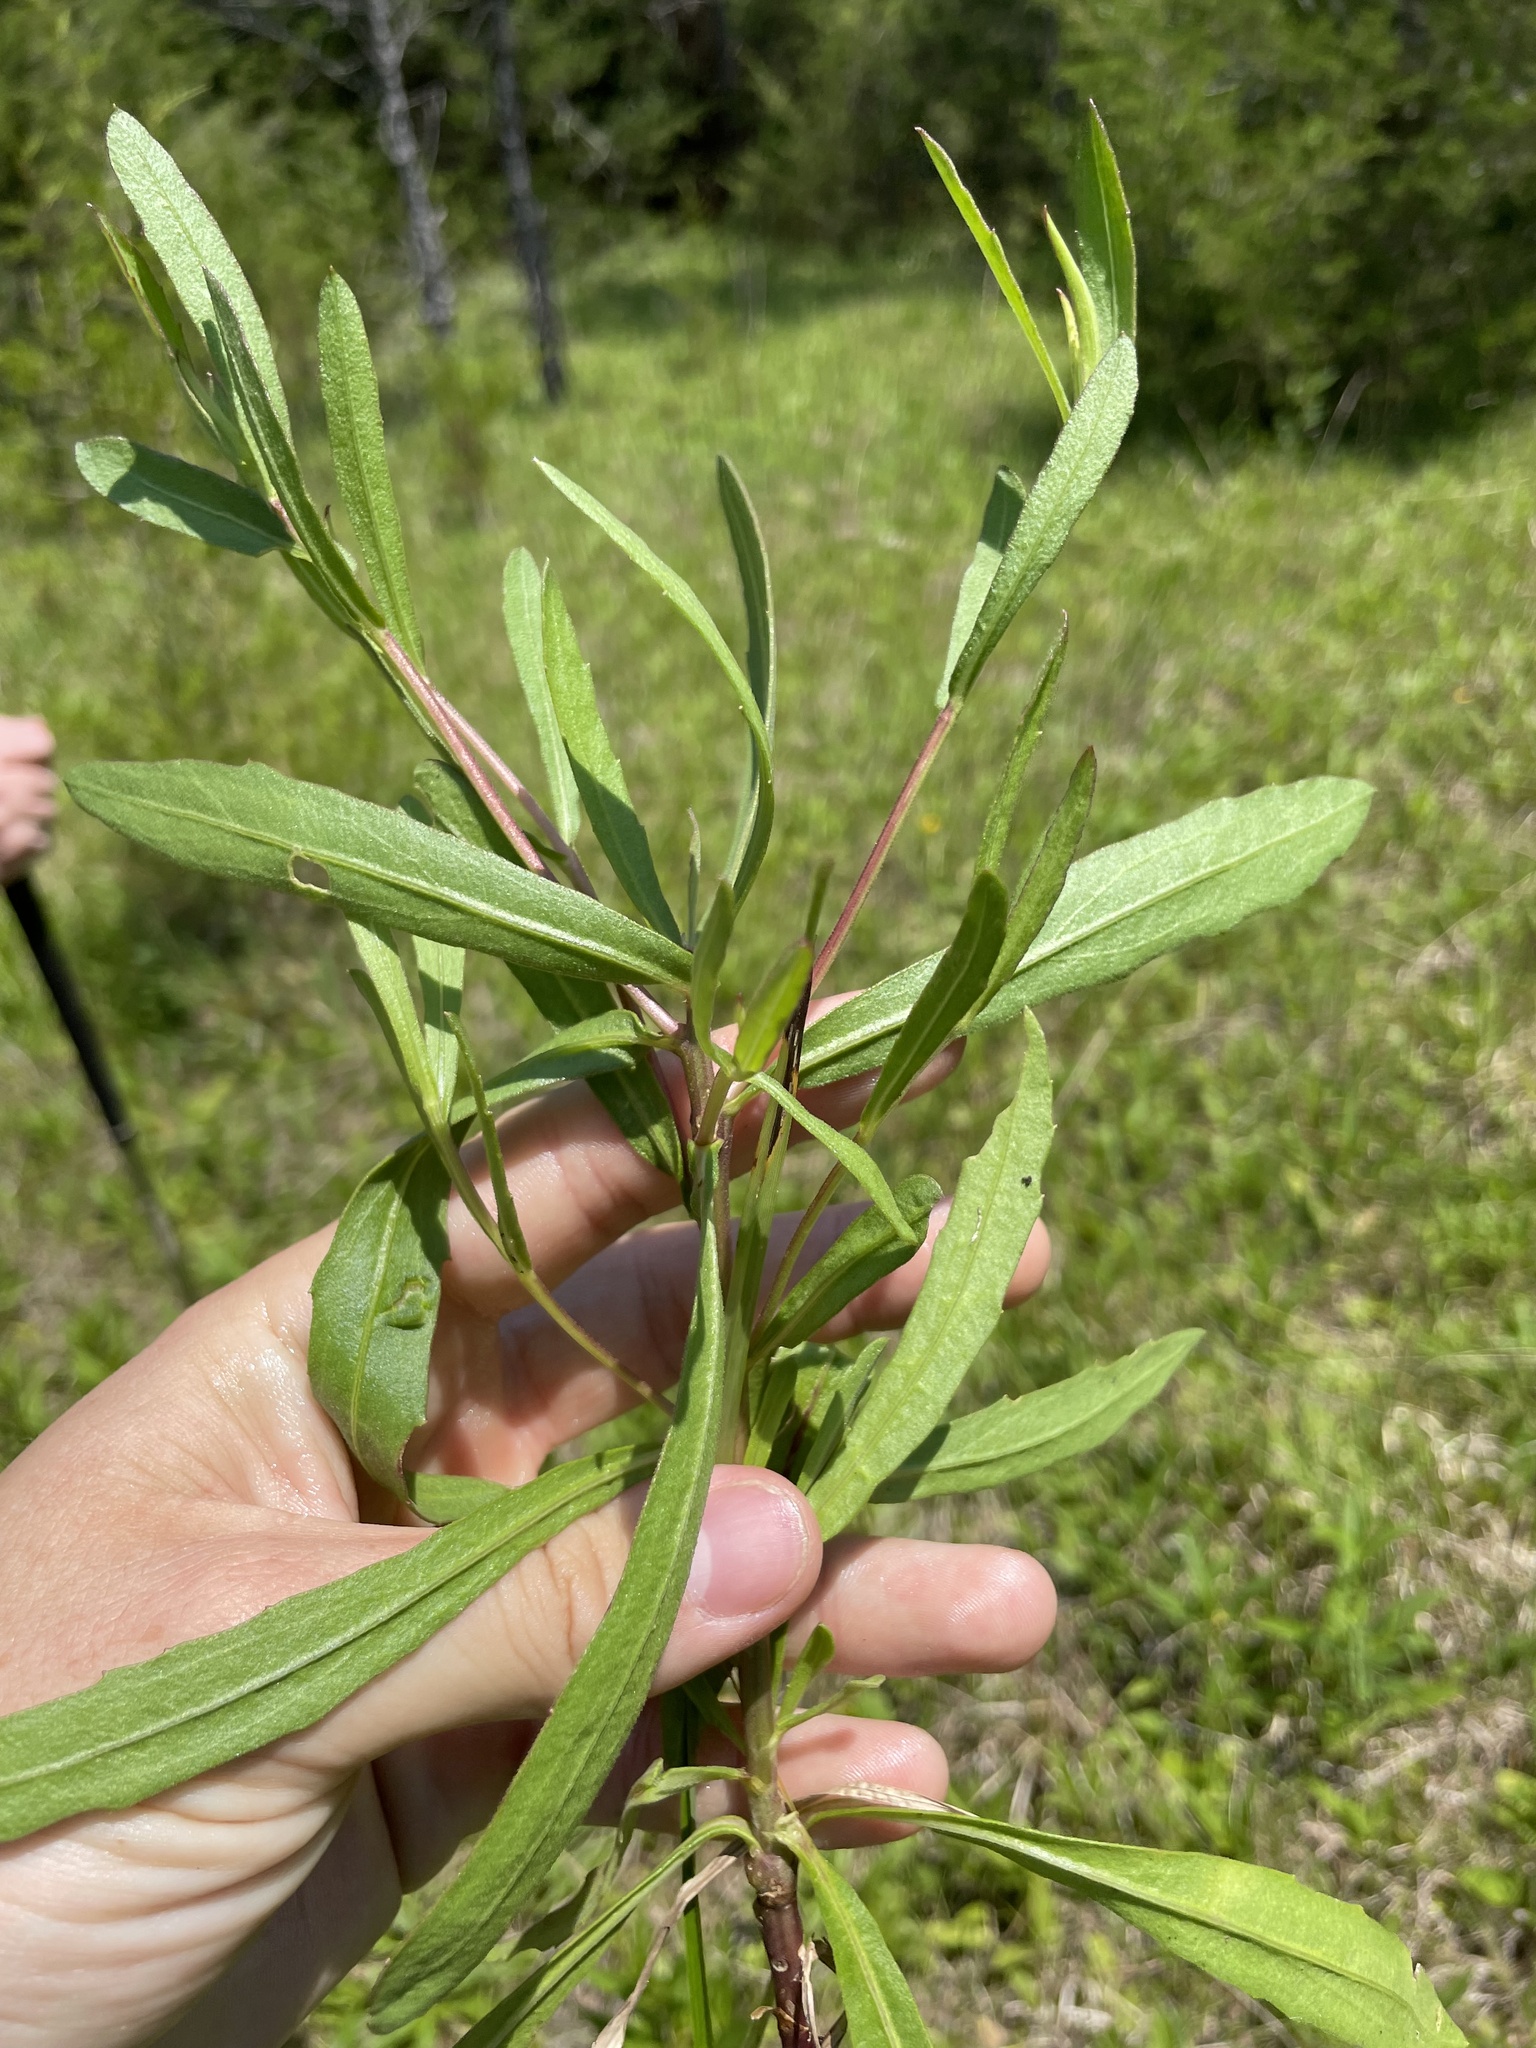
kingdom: Plantae
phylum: Tracheophyta
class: Magnoliopsida
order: Asterales
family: Asteraceae
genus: Gaillardia
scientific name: Gaillardia aestivalis
